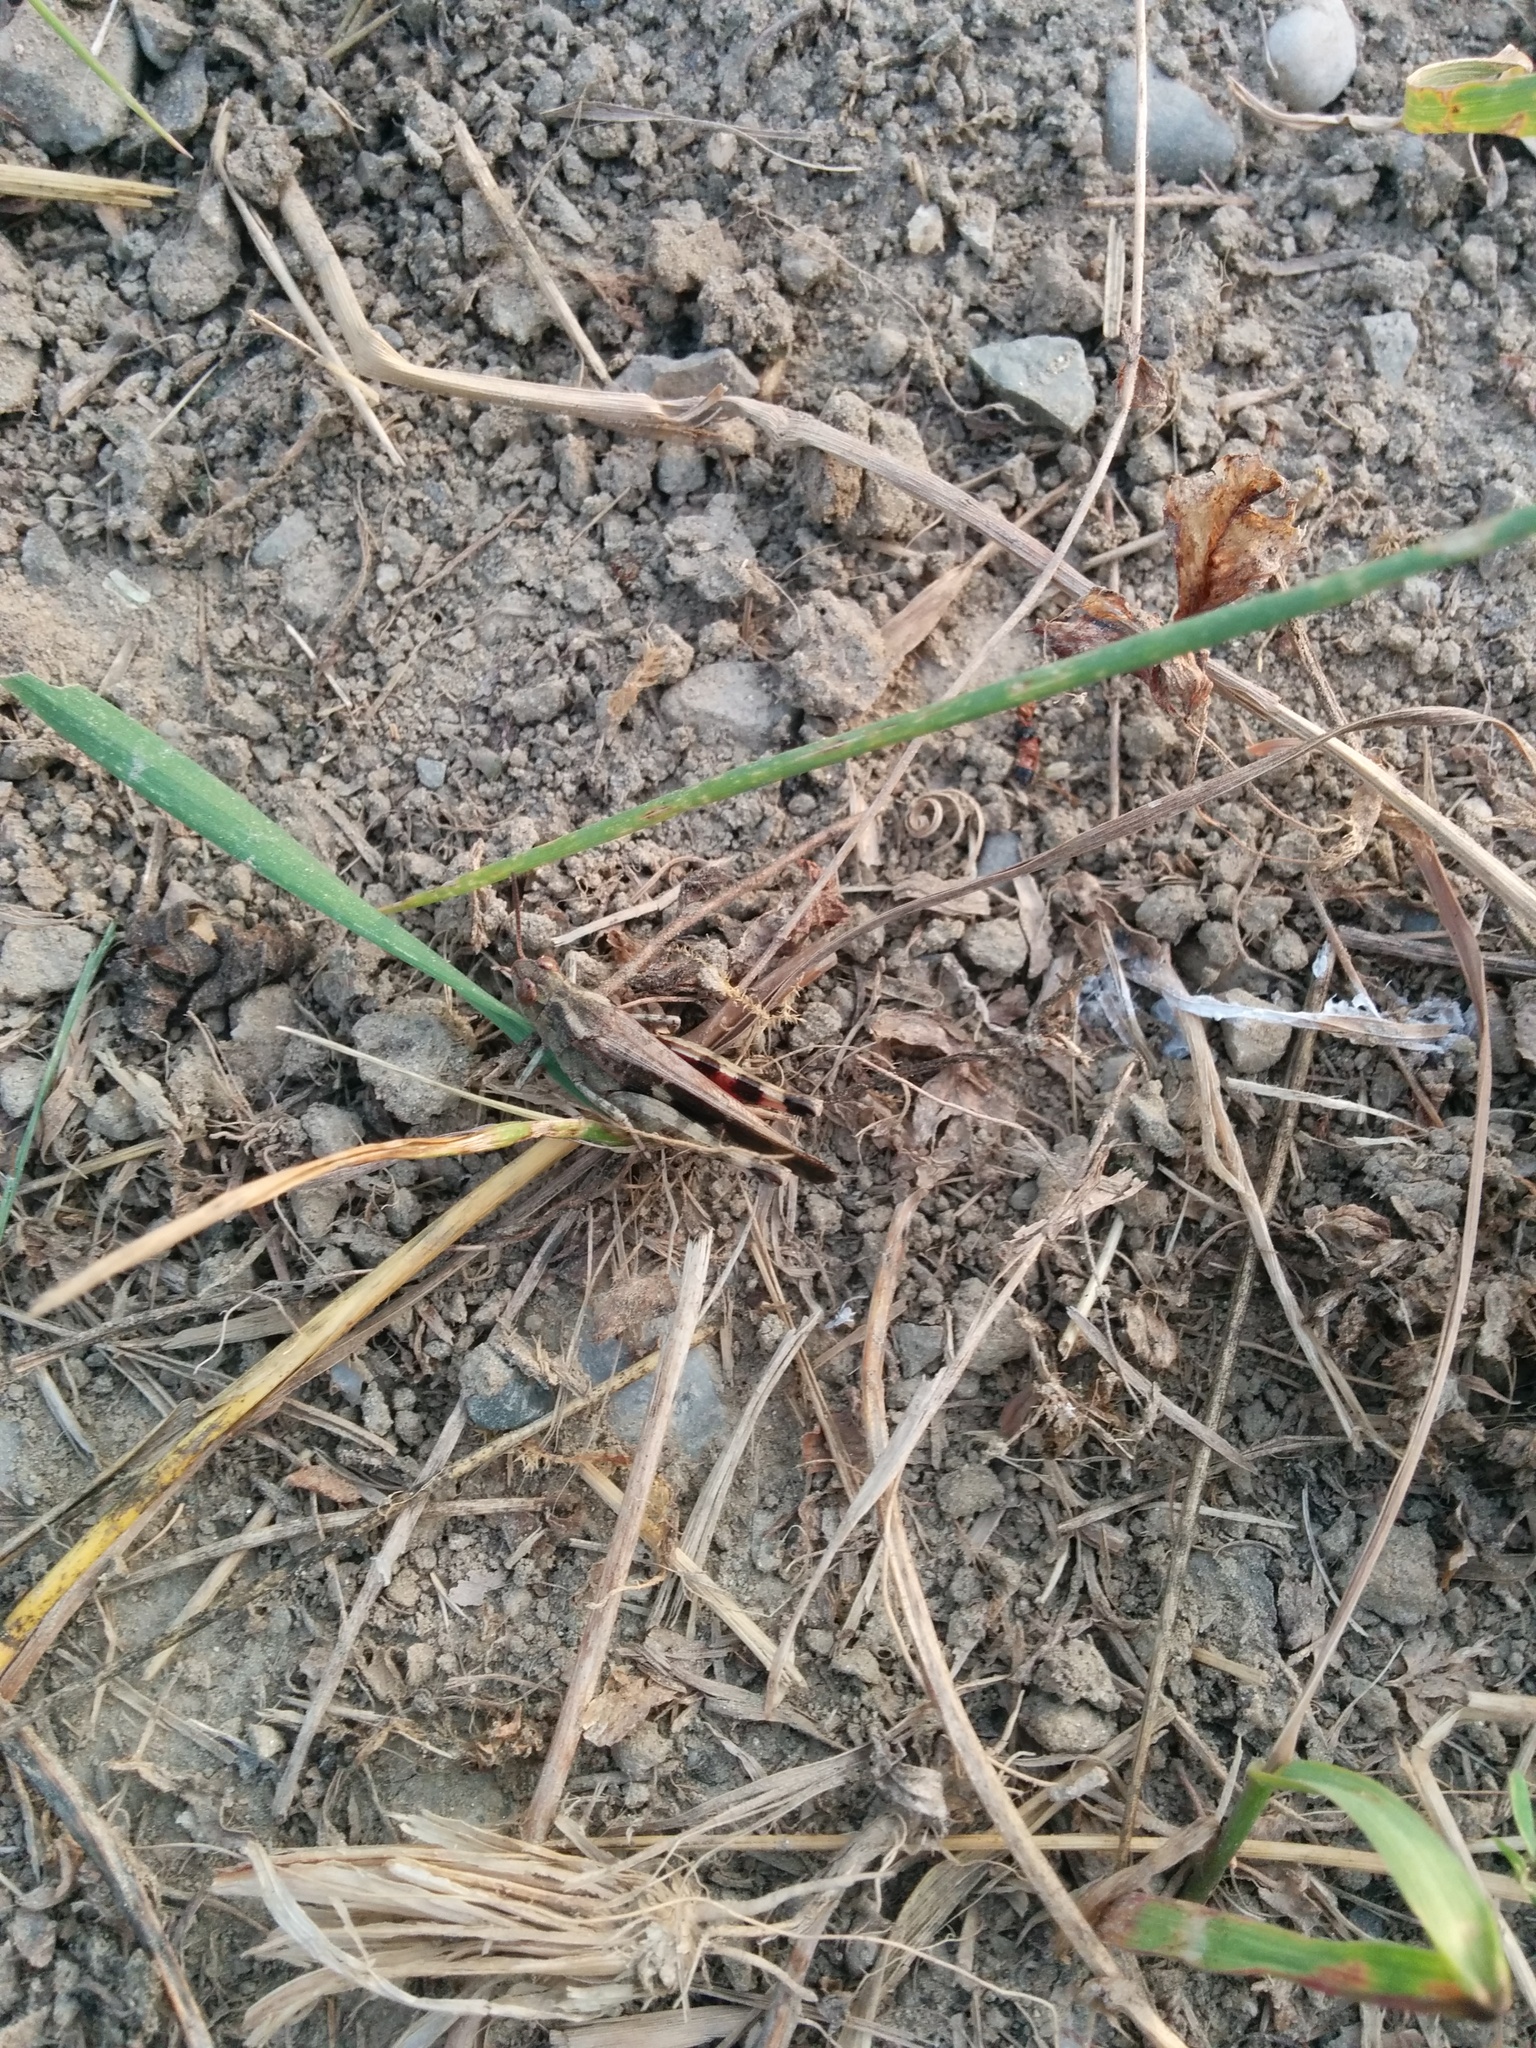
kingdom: Animalia
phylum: Arthropoda
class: Insecta
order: Orthoptera
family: Acrididae
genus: Aiolopus
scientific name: Aiolopus strepens
